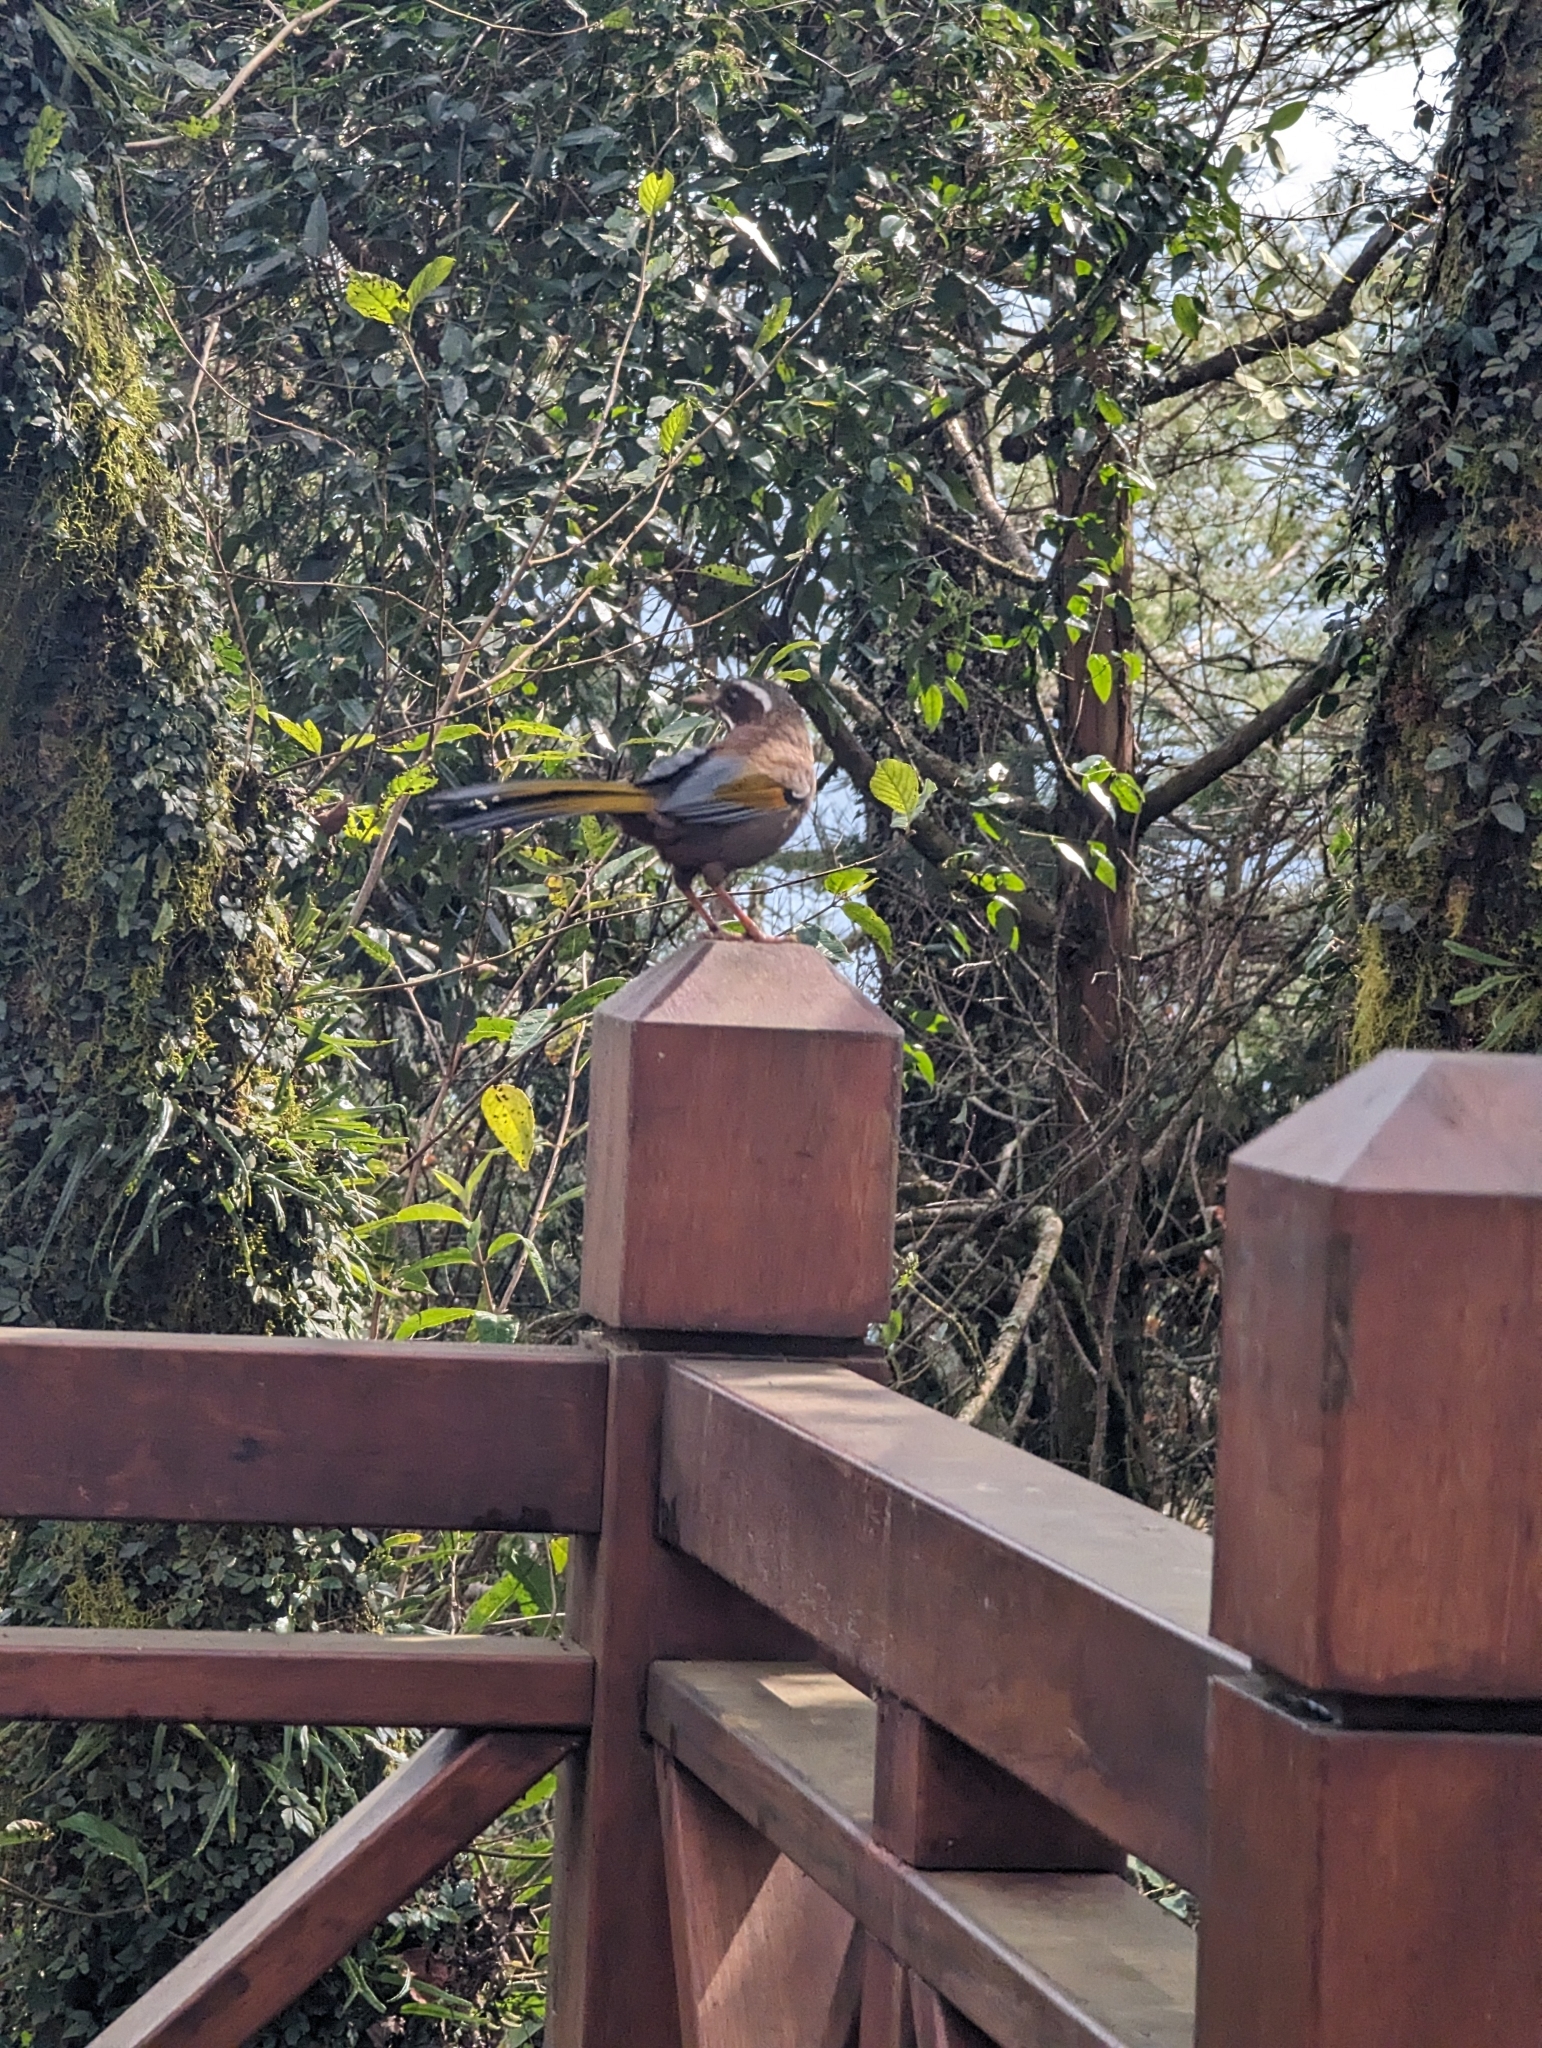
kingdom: Animalia
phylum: Chordata
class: Aves
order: Passeriformes
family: Leiothrichidae
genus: Trochalopteron
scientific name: Trochalopteron morrisonianum
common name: White-whiskered laughingthrush
